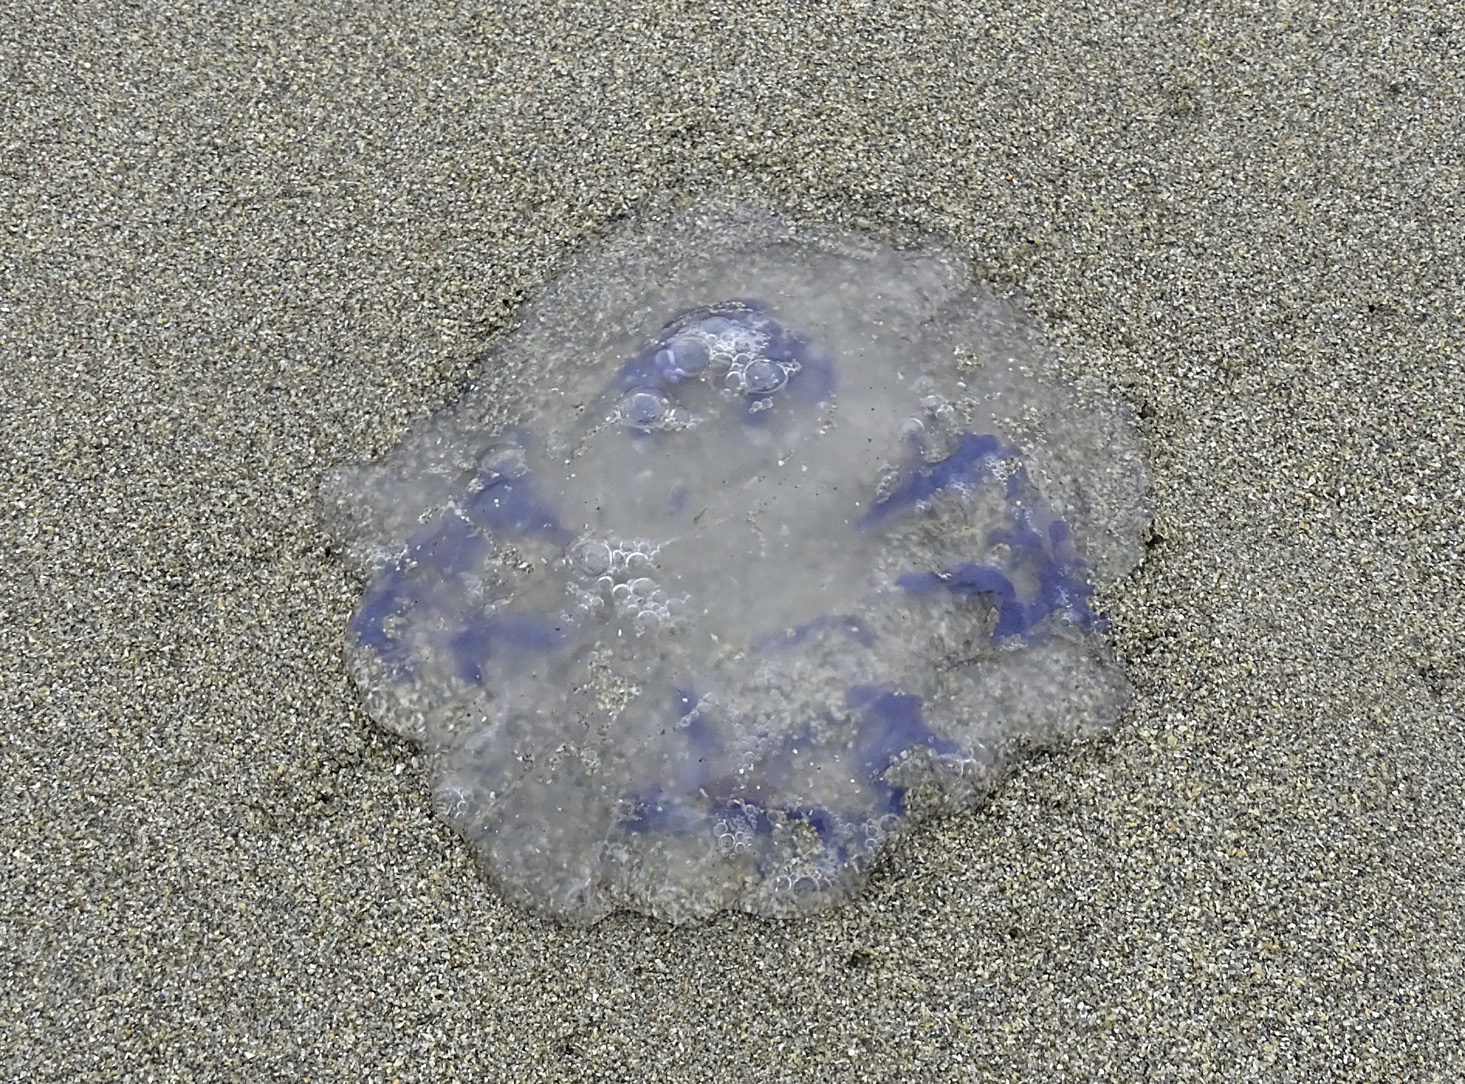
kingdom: Animalia
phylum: Cnidaria
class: Scyphozoa
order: Semaeostomeae
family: Ulmaridae
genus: Aurelia
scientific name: Aurelia labiata
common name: Pacific moon jelly
